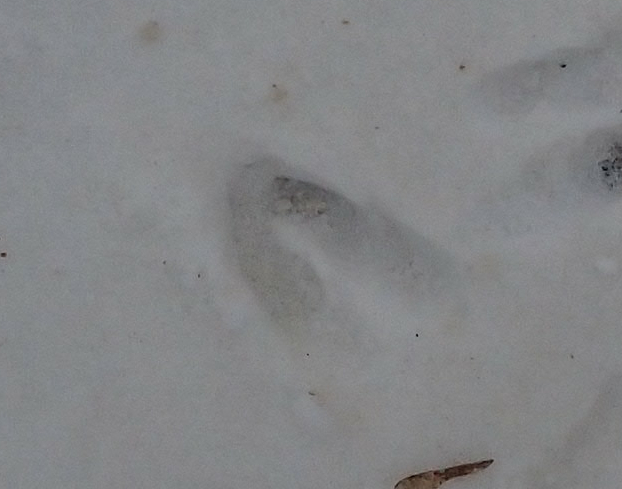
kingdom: Animalia
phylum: Chordata
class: Mammalia
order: Artiodactyla
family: Cervidae
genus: Odocoileus
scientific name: Odocoileus virginianus
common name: White-tailed deer
